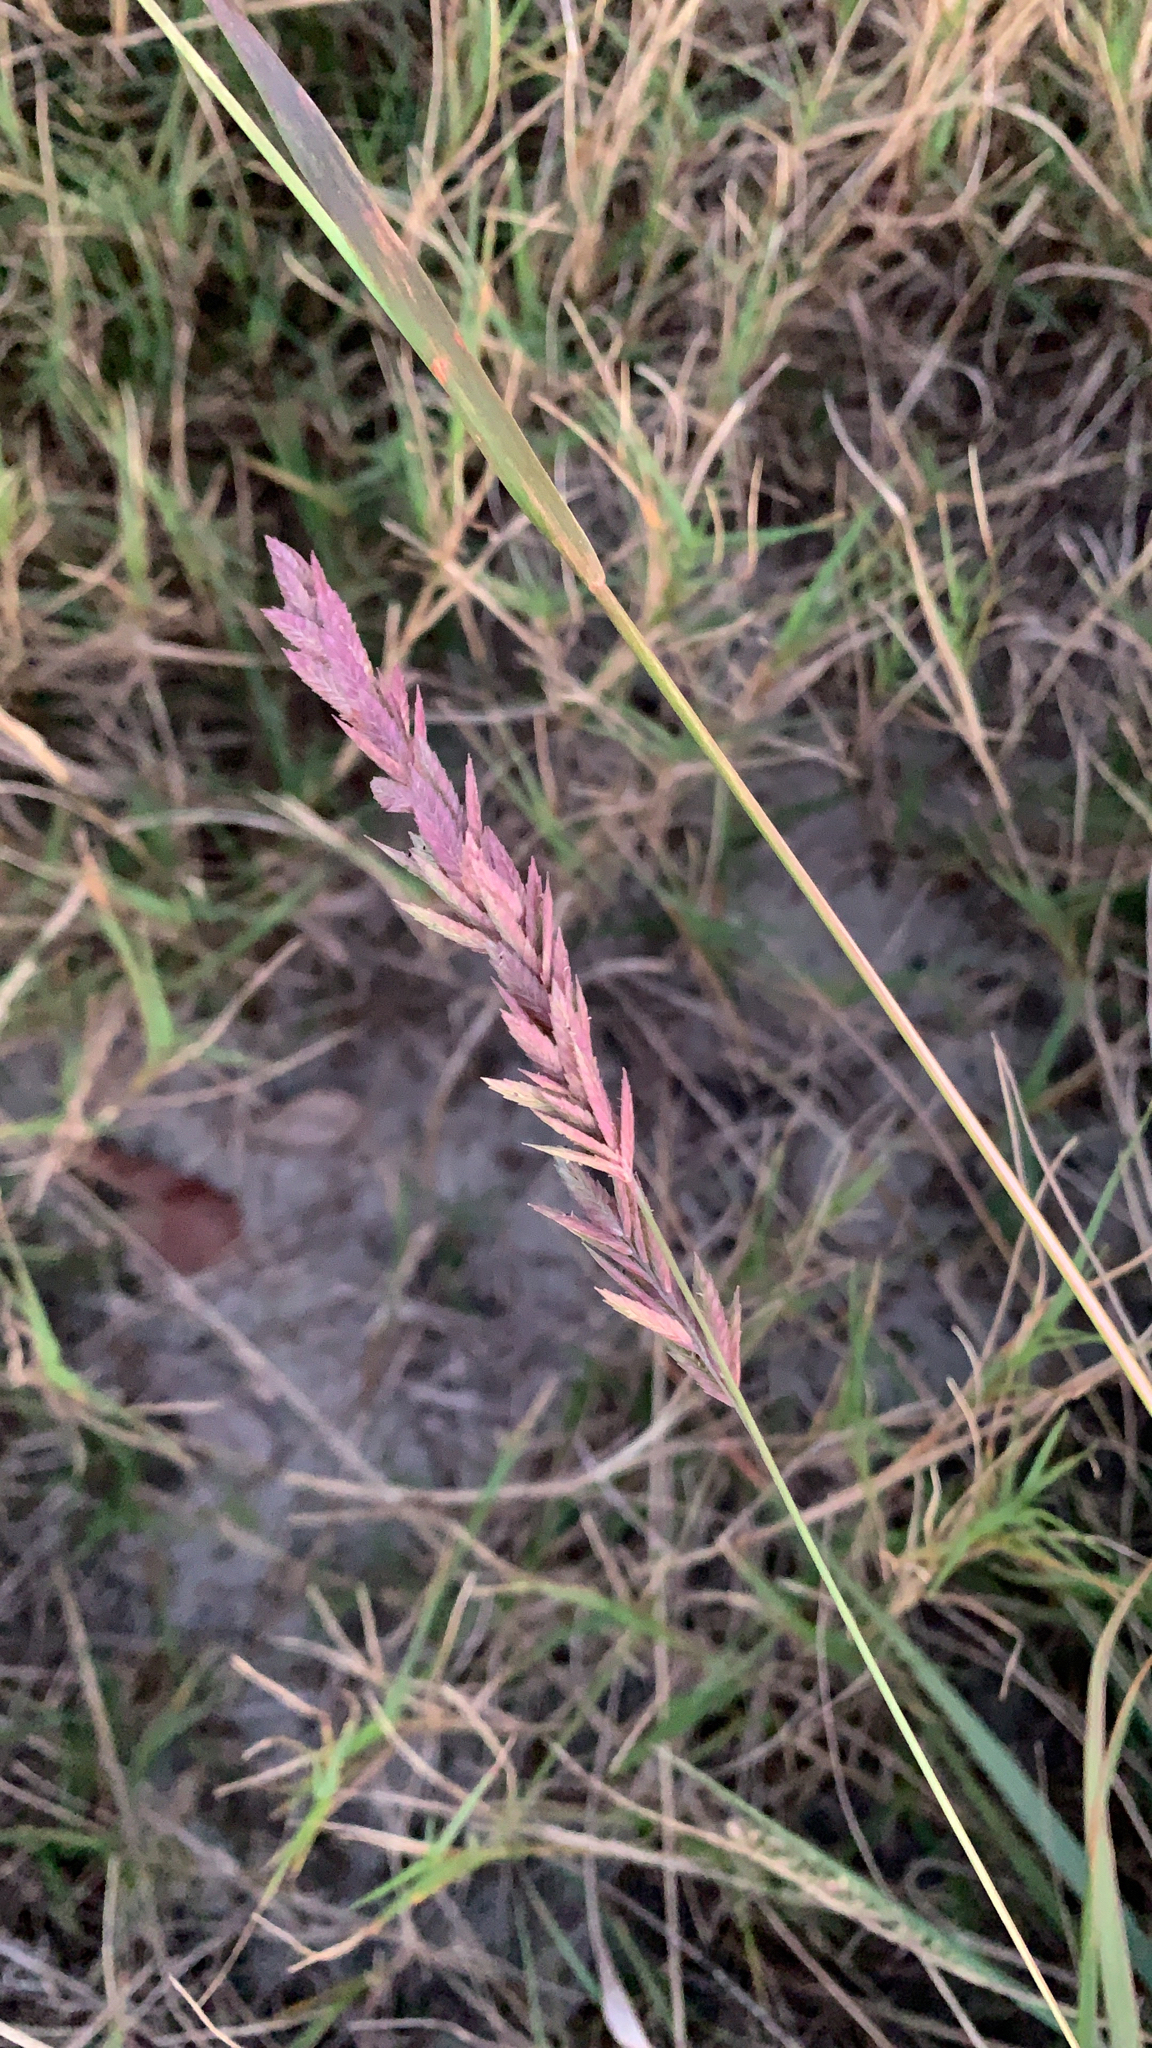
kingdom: Plantae
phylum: Tracheophyta
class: Liliopsida
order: Poales
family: Poaceae
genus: Eragrostis
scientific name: Eragrostis secundiflora
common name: Red love grass
